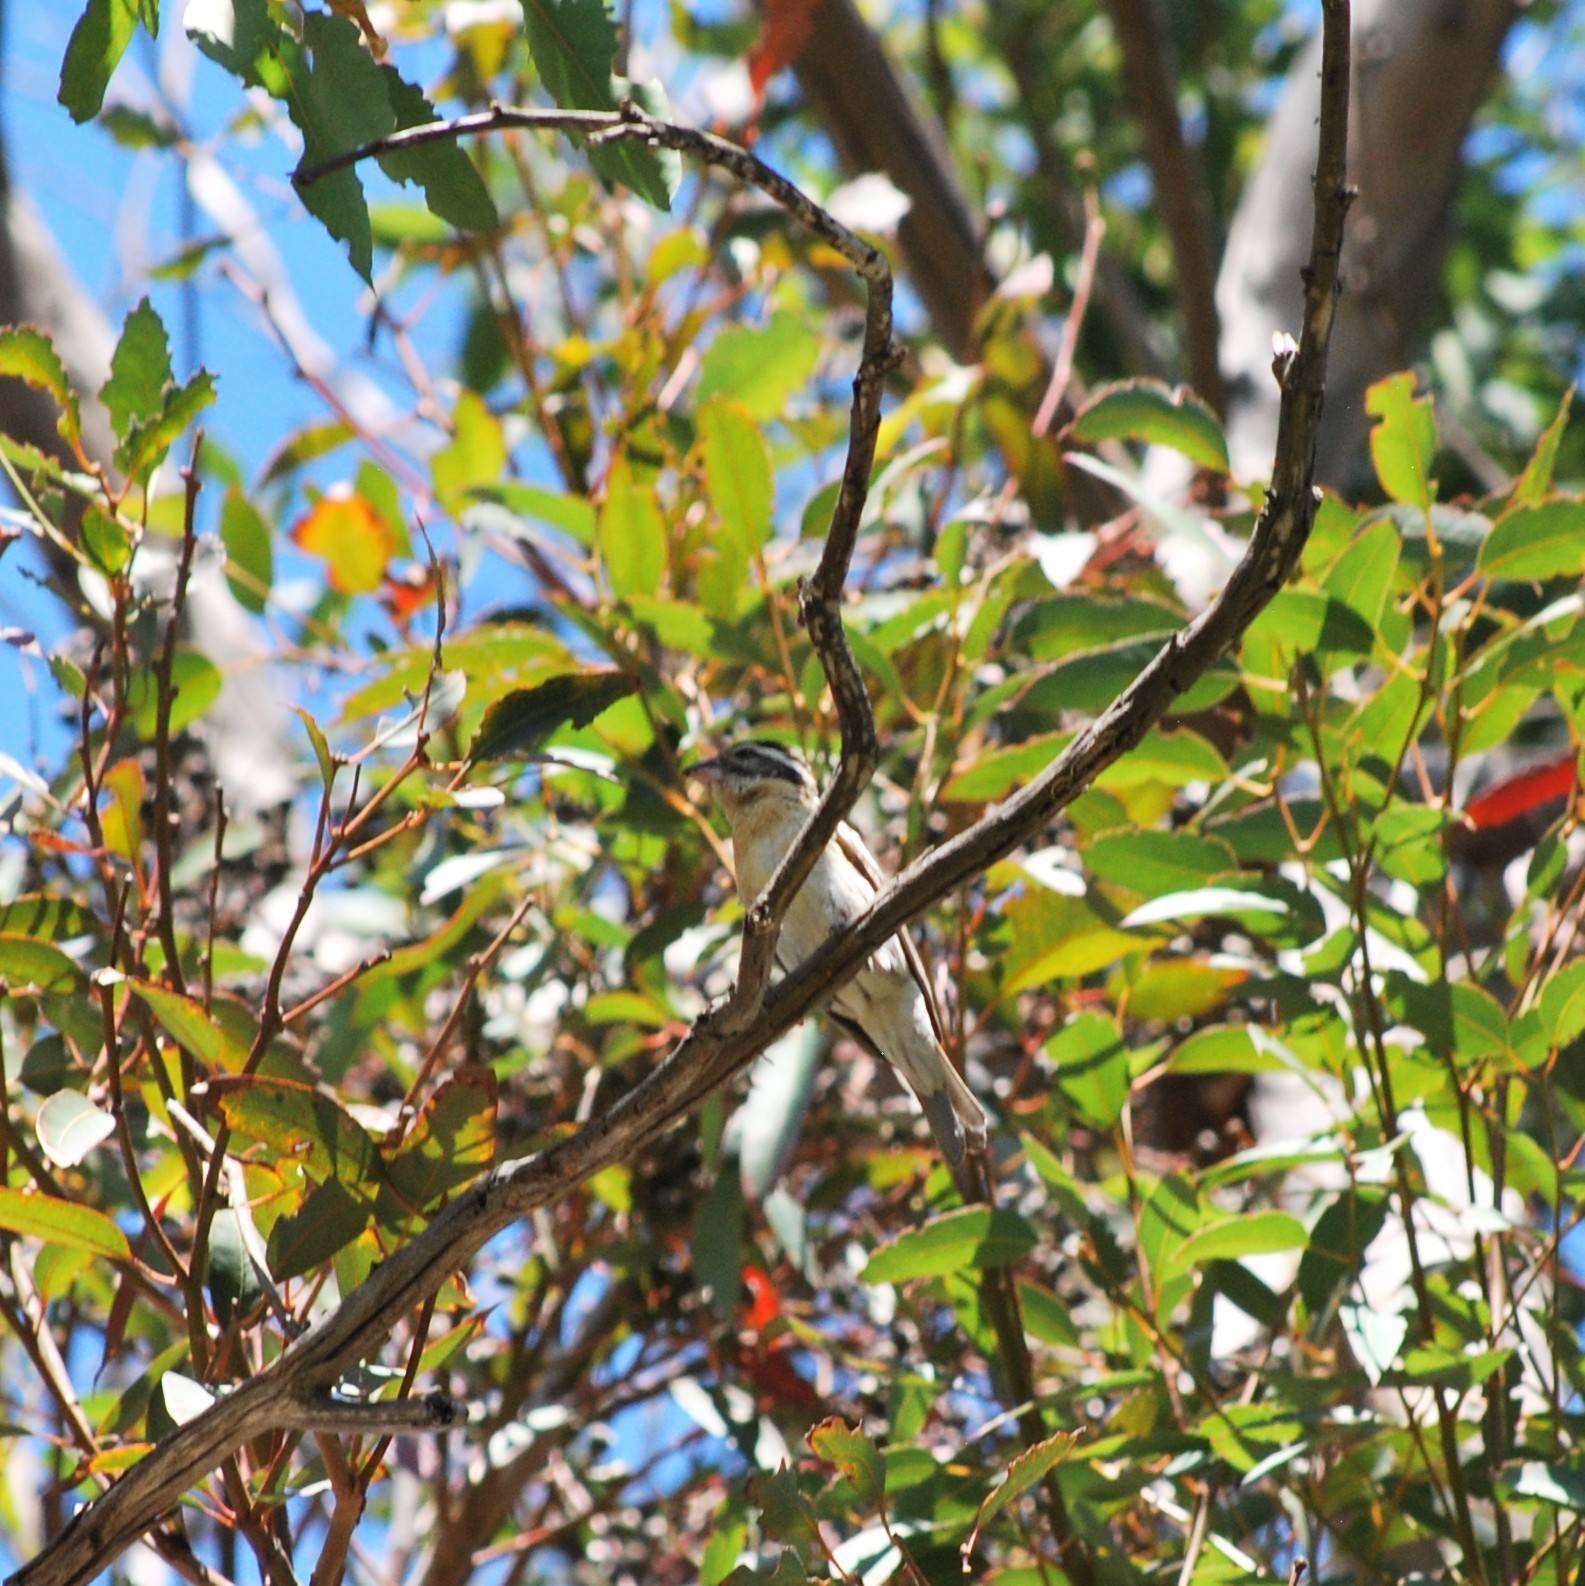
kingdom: Animalia
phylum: Chordata
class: Aves
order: Passeriformes
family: Cardinalidae
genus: Pheucticus
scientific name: Pheucticus melanocephalus
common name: Black-headed grosbeak
